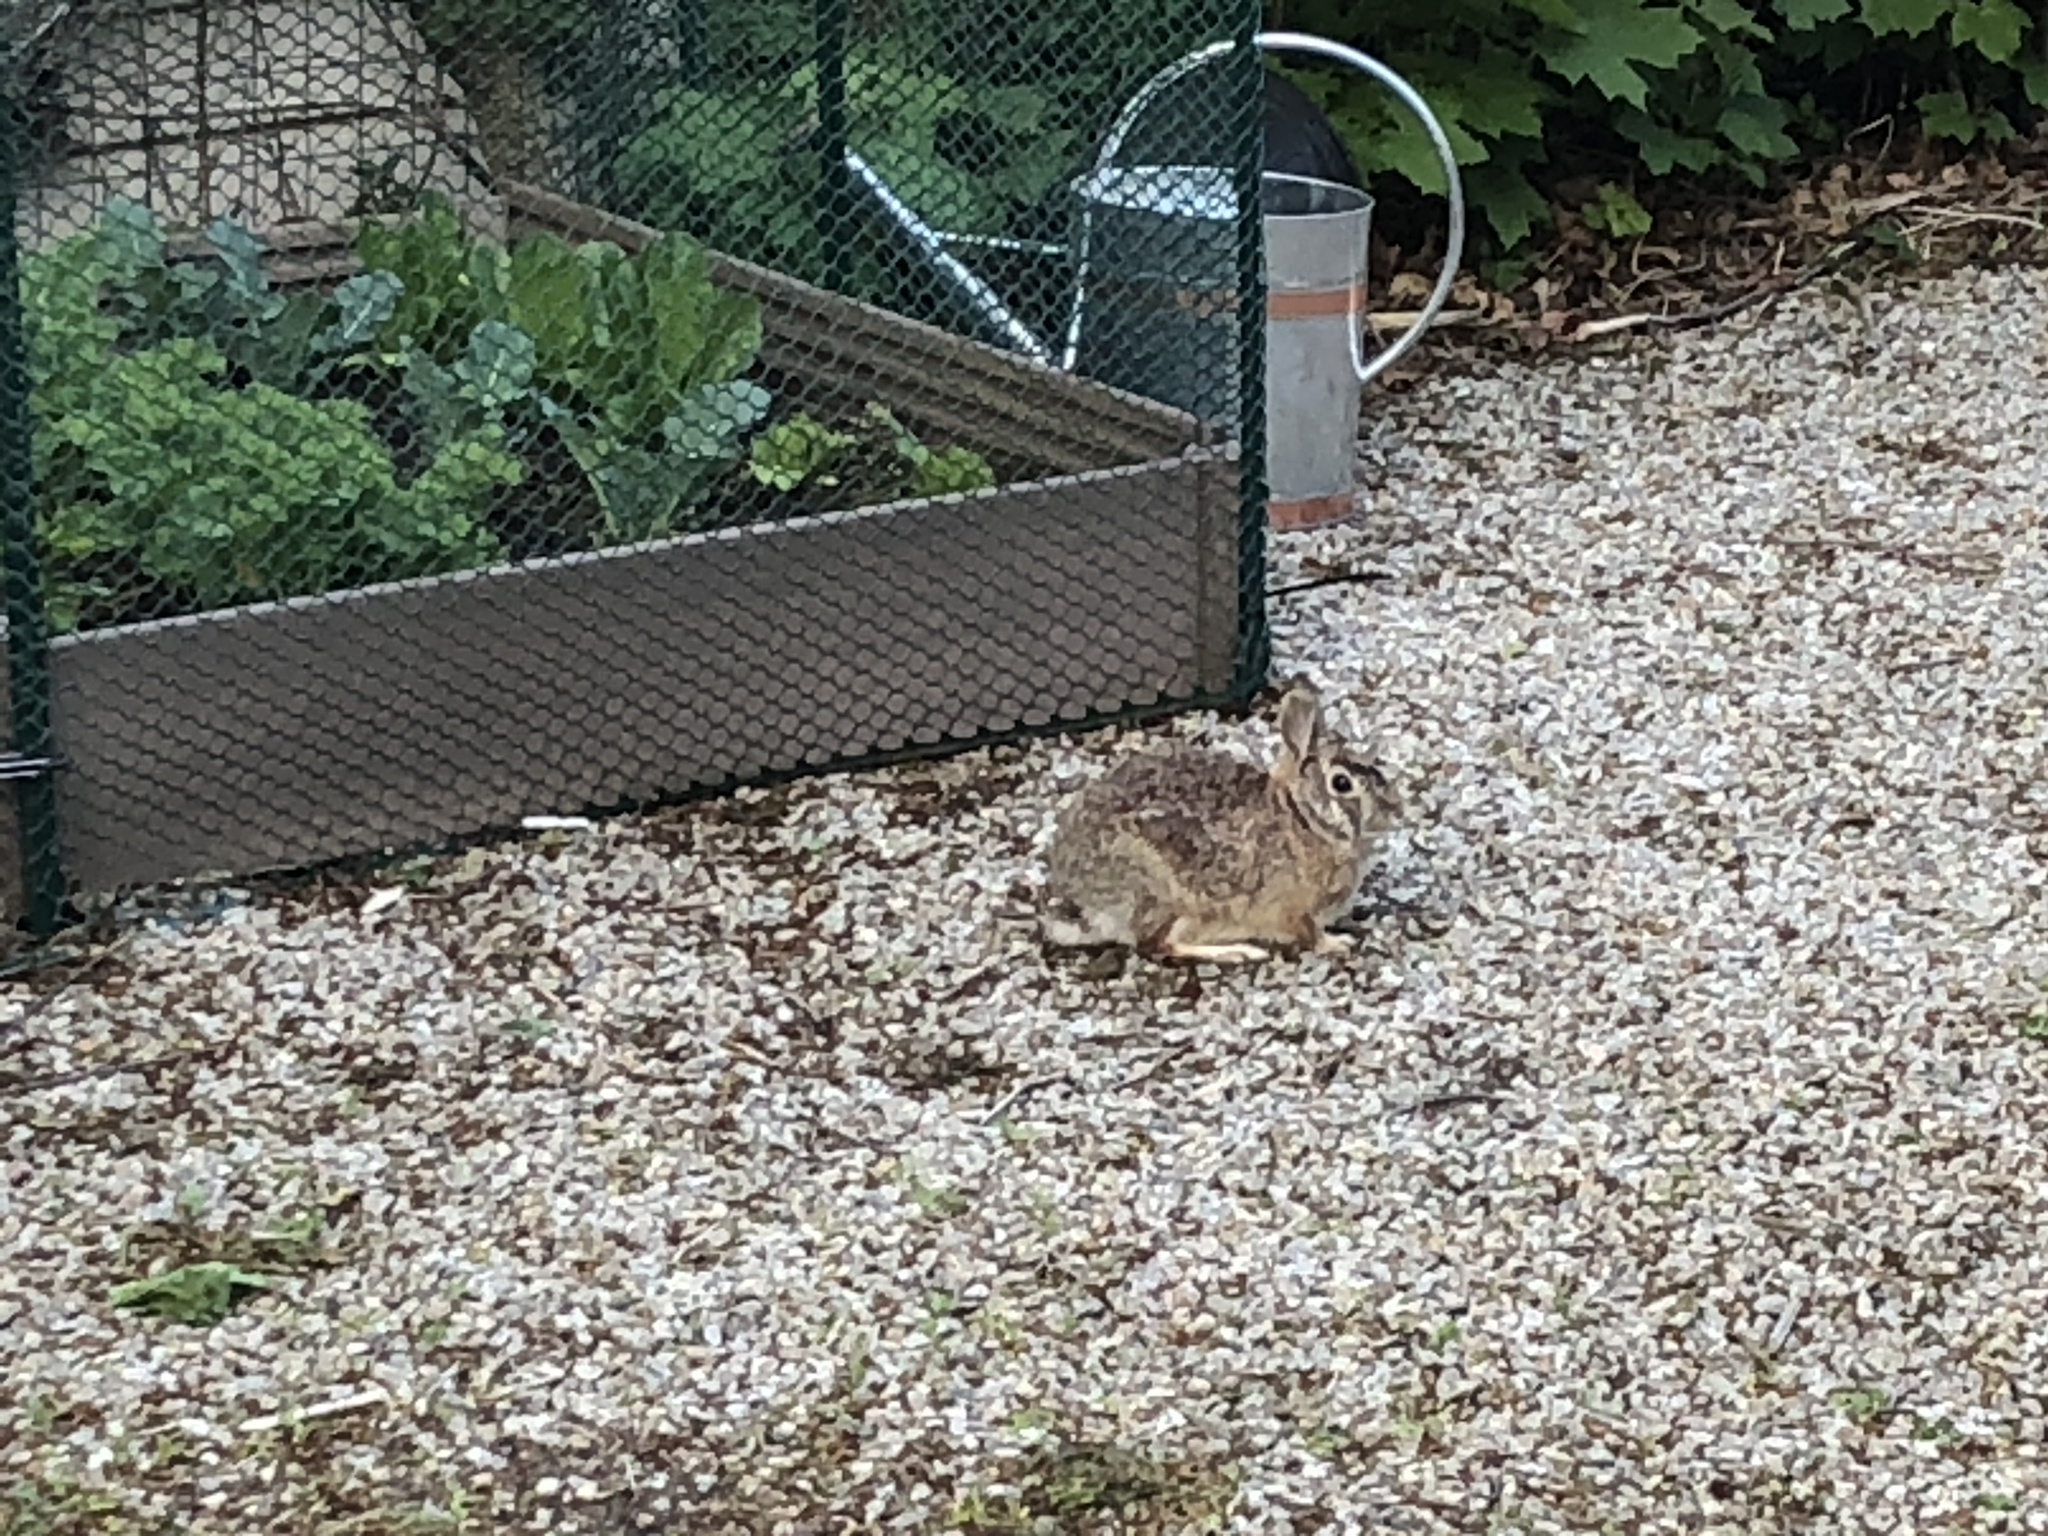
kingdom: Animalia
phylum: Chordata
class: Mammalia
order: Lagomorpha
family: Leporidae
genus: Sylvilagus
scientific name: Sylvilagus floridanus
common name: Eastern cottontail
